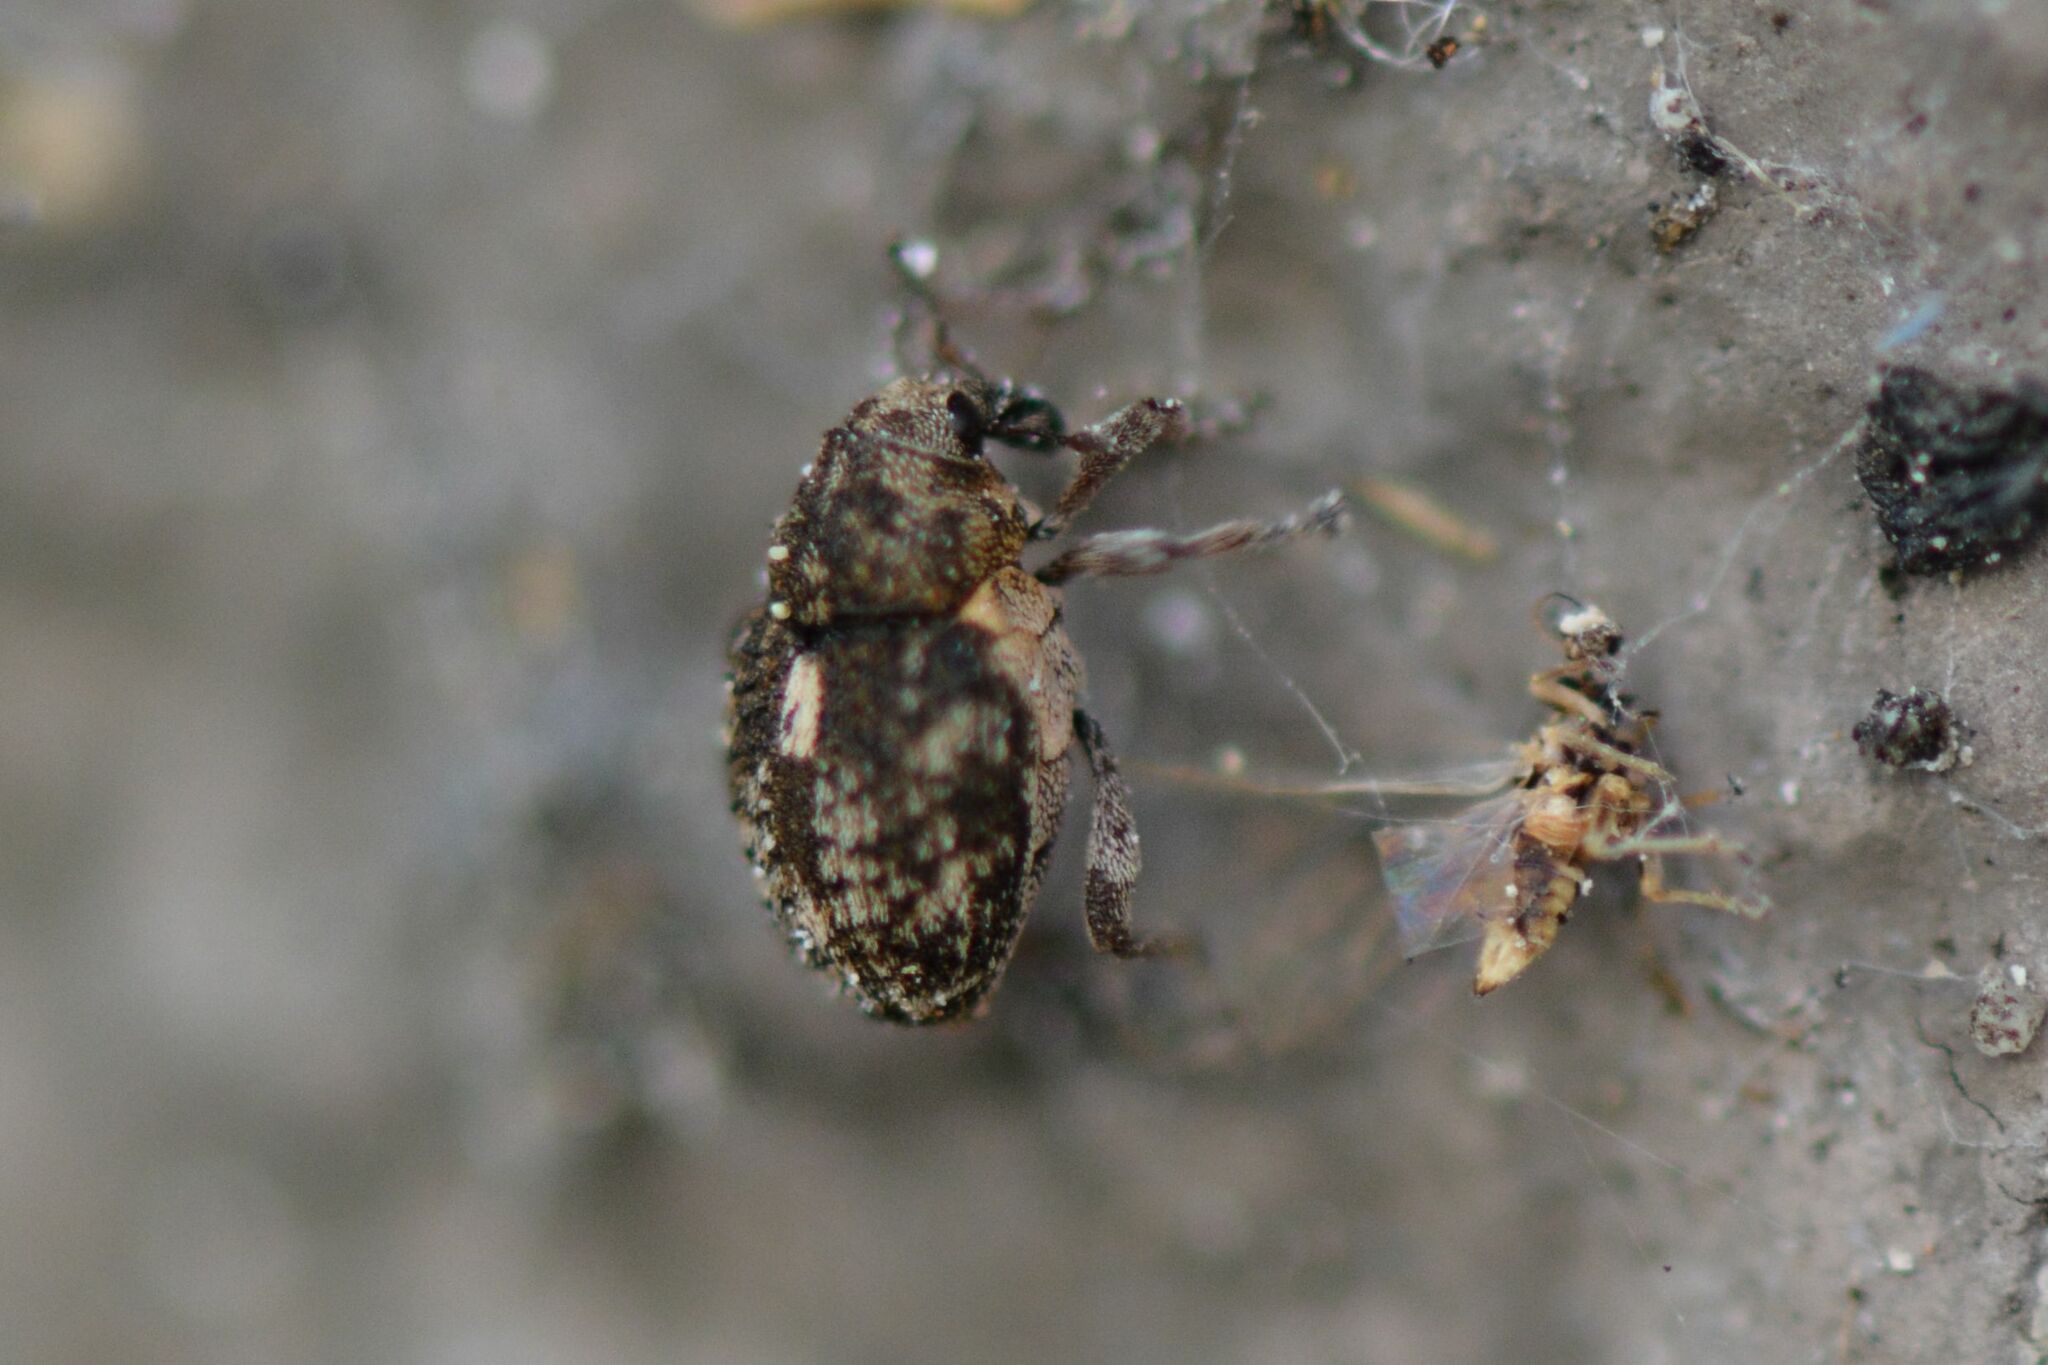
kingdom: Animalia
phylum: Arthropoda
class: Insecta
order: Coleoptera
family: Curculionidae
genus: Rhinoncus
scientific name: Rhinoncus pericarpius
